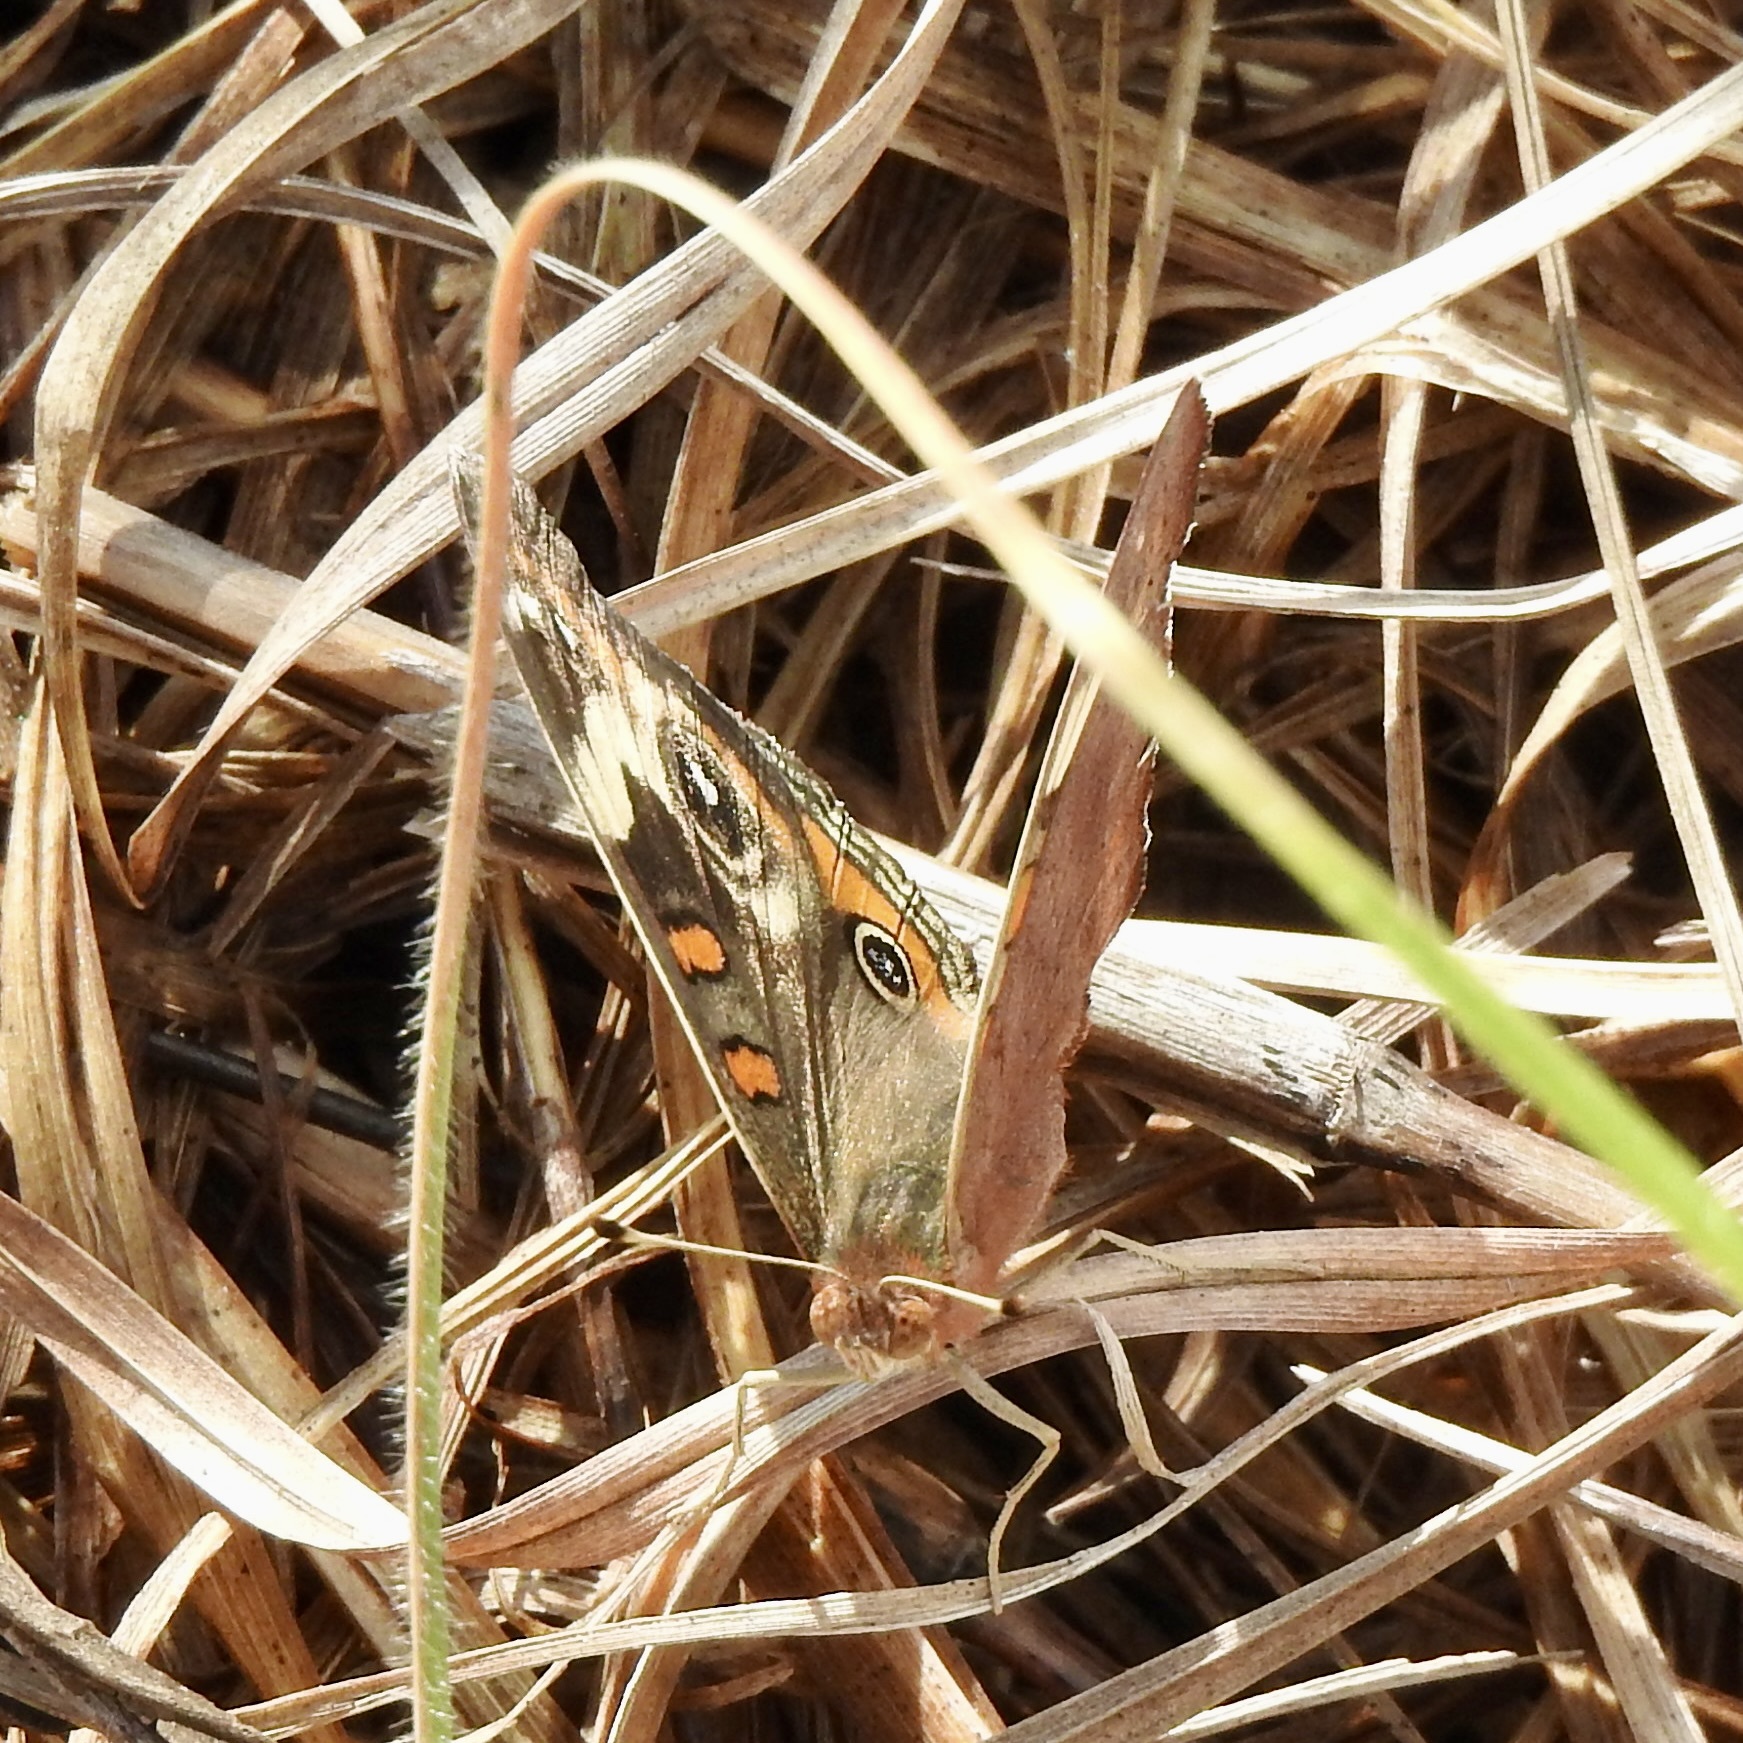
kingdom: Animalia
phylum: Arthropoda
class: Insecta
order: Lepidoptera
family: Nymphalidae
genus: Junonia
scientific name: Junonia coenia
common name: Common buckeye
